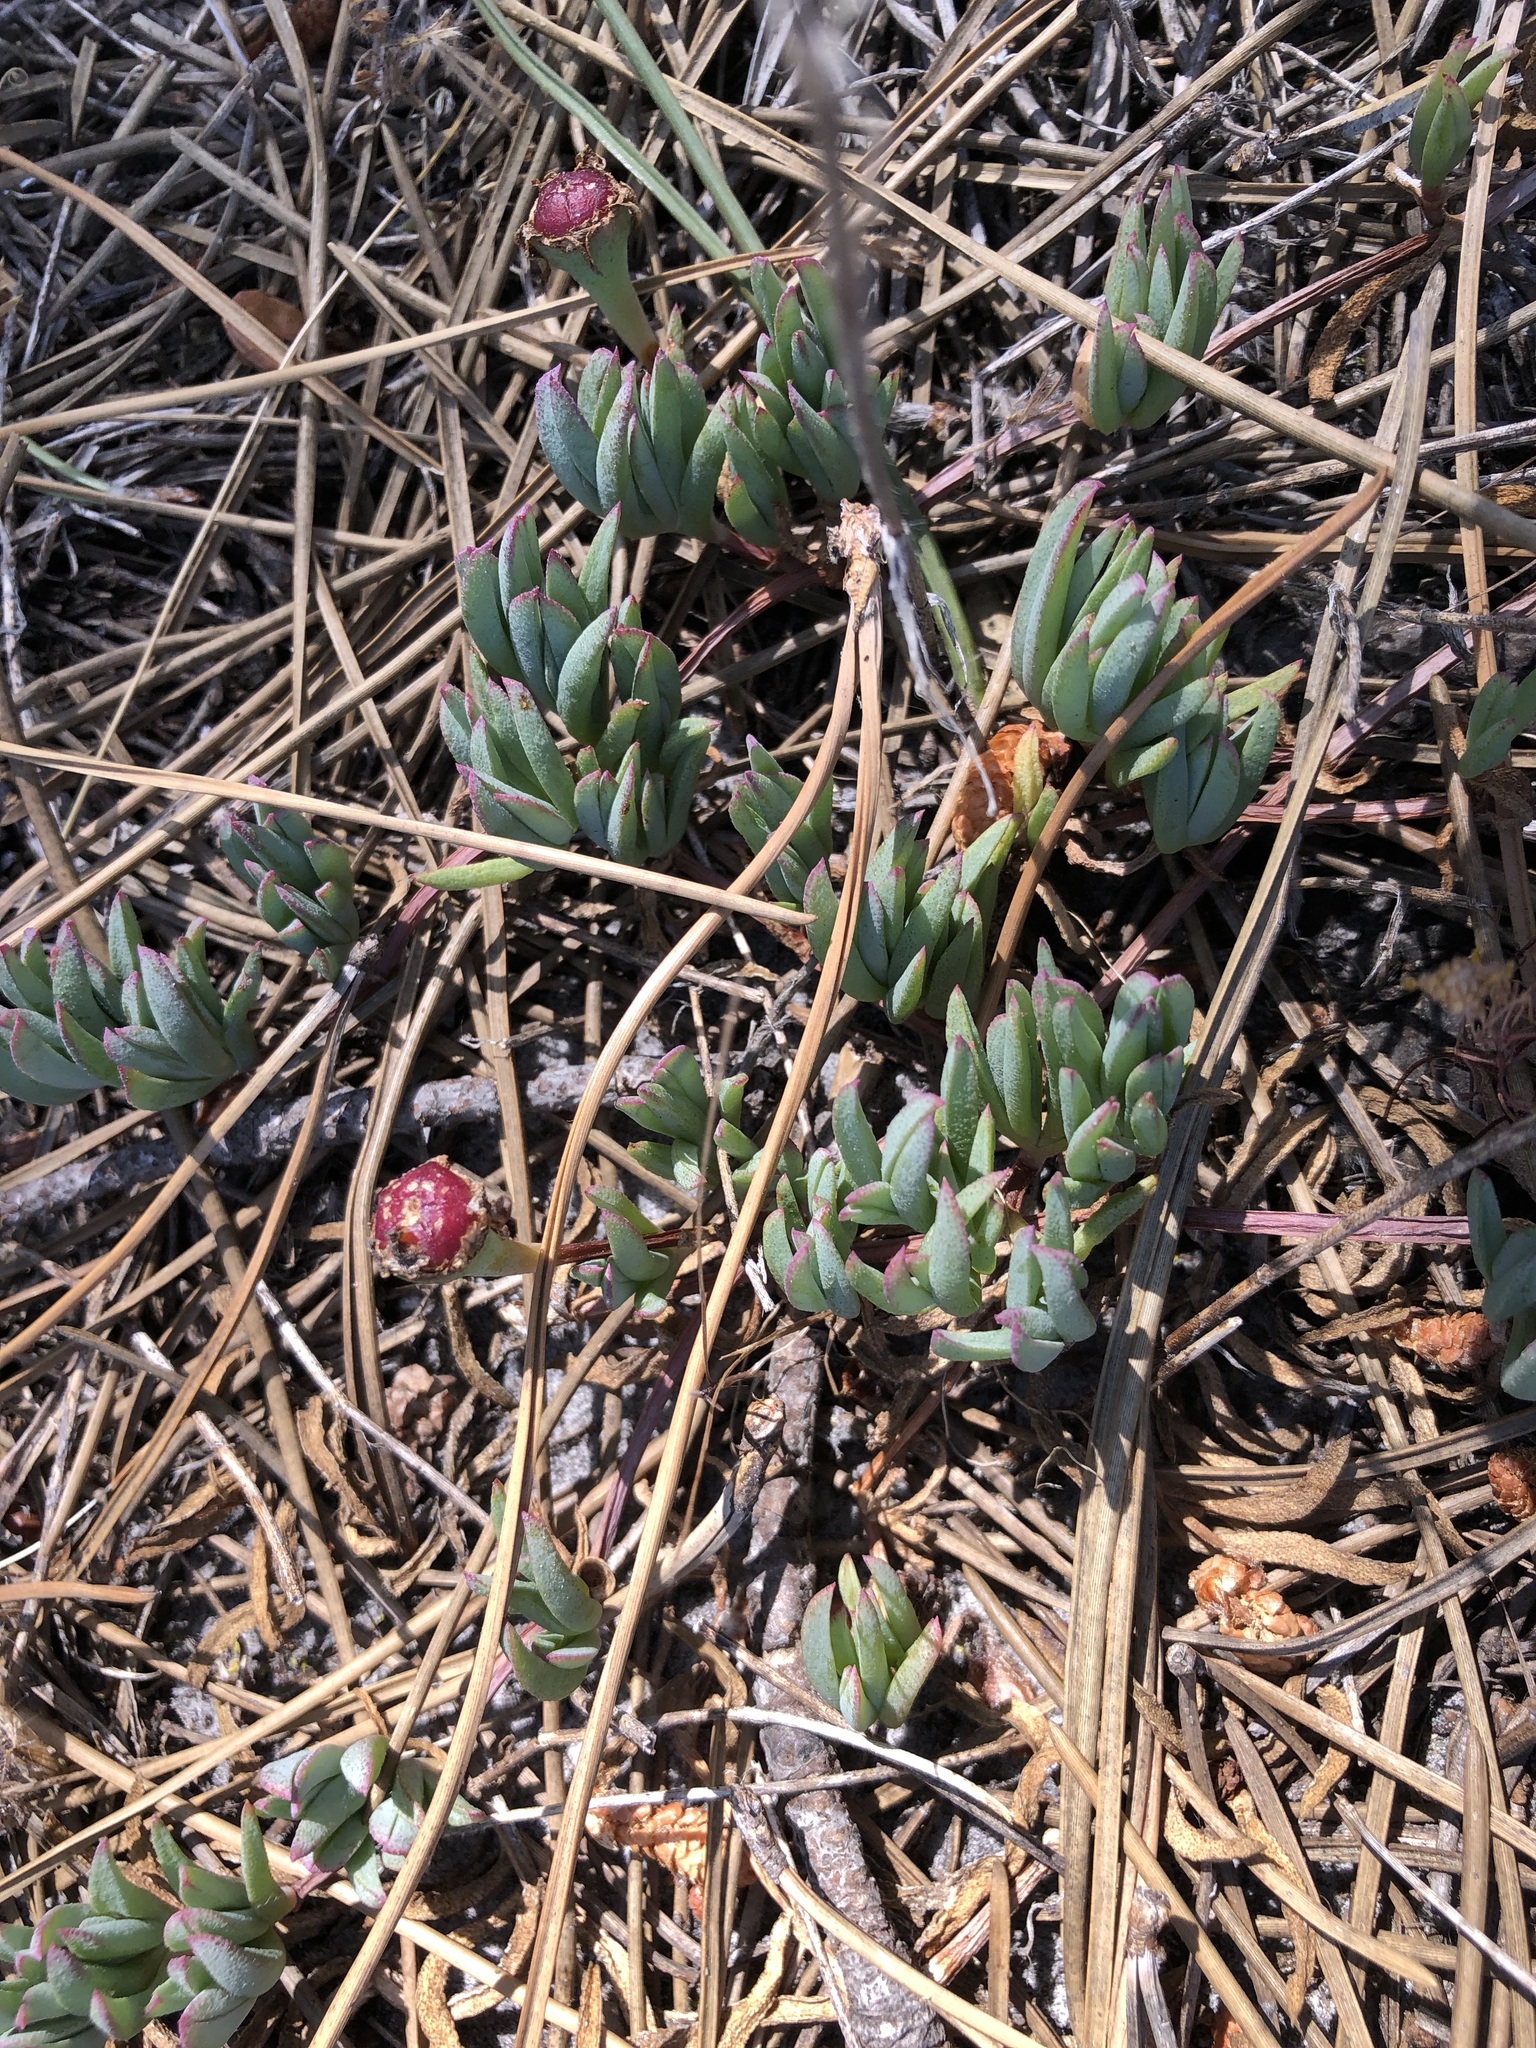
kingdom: Plantae
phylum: Tracheophyta
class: Magnoliopsida
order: Caryophyllales
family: Aizoaceae
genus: Lampranthus
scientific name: Lampranthus reptans
